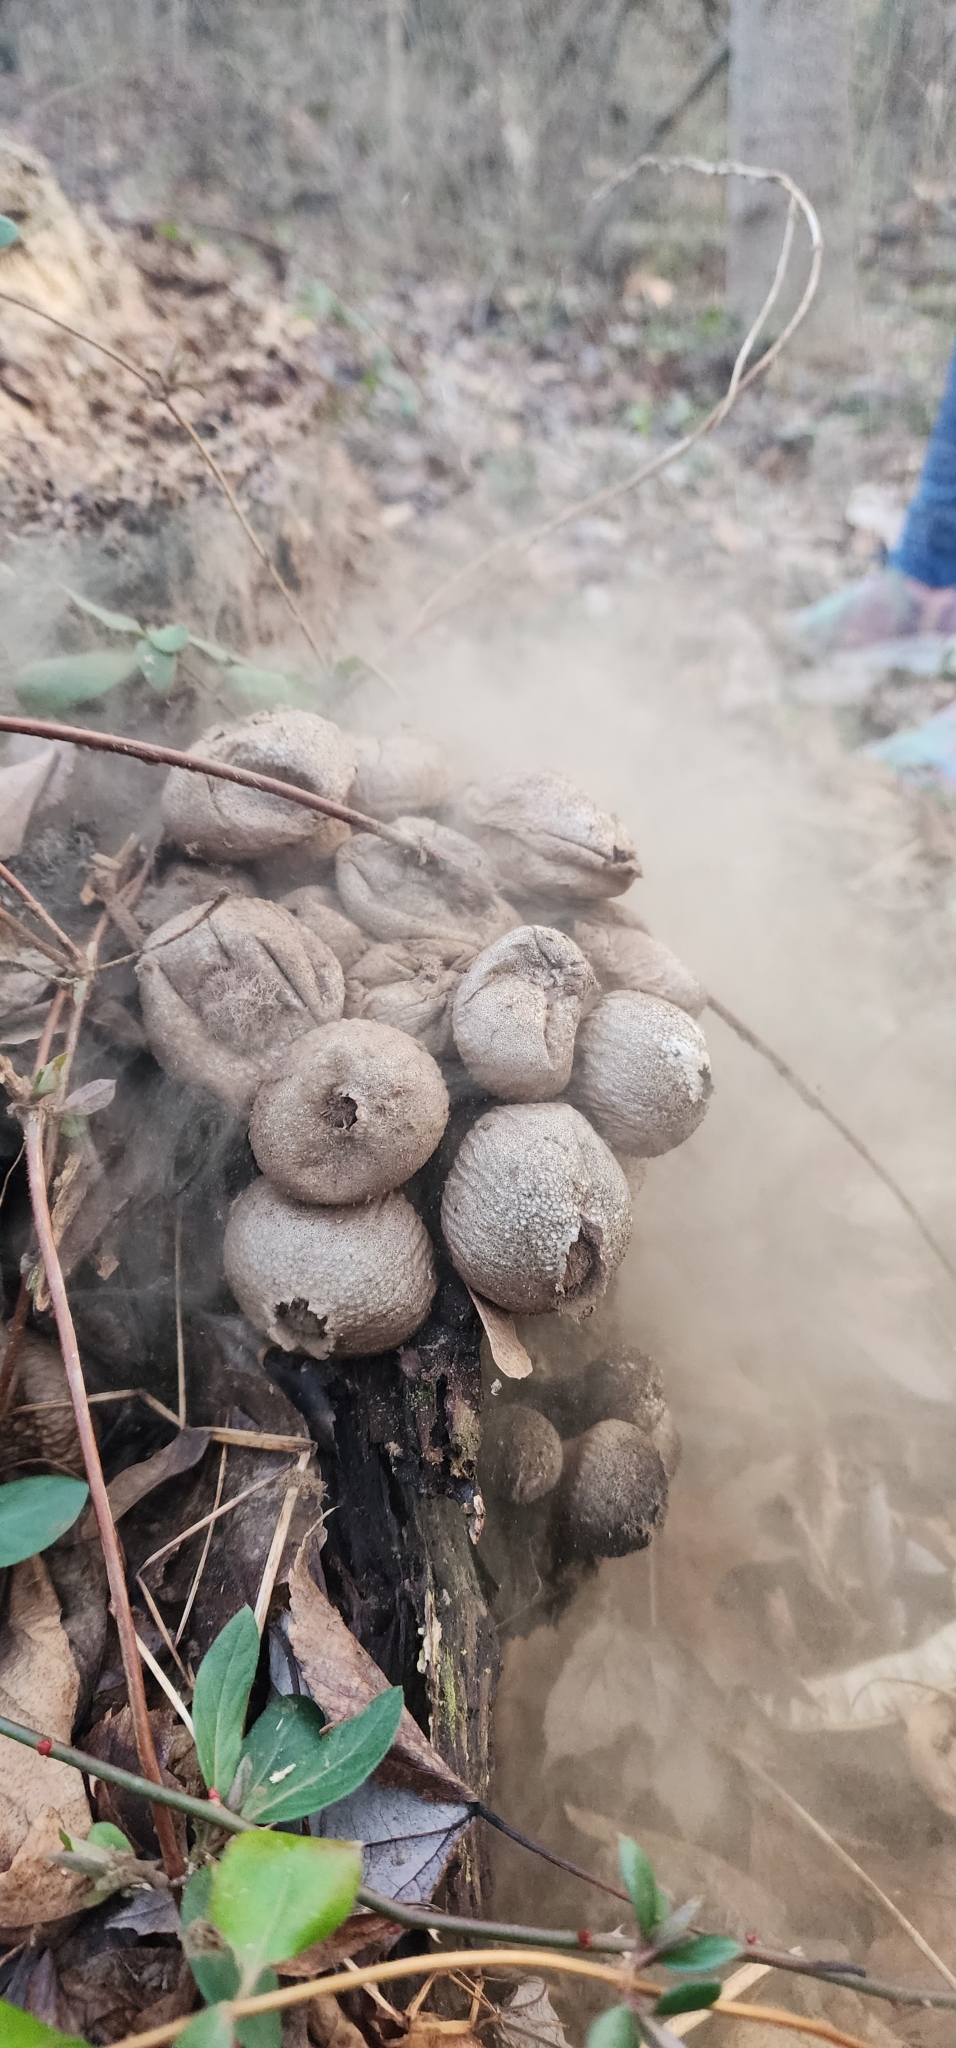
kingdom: Fungi
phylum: Basidiomycota
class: Agaricomycetes
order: Agaricales
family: Lycoperdaceae
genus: Apioperdon
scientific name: Apioperdon pyriforme
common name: Pear-shaped puffball
